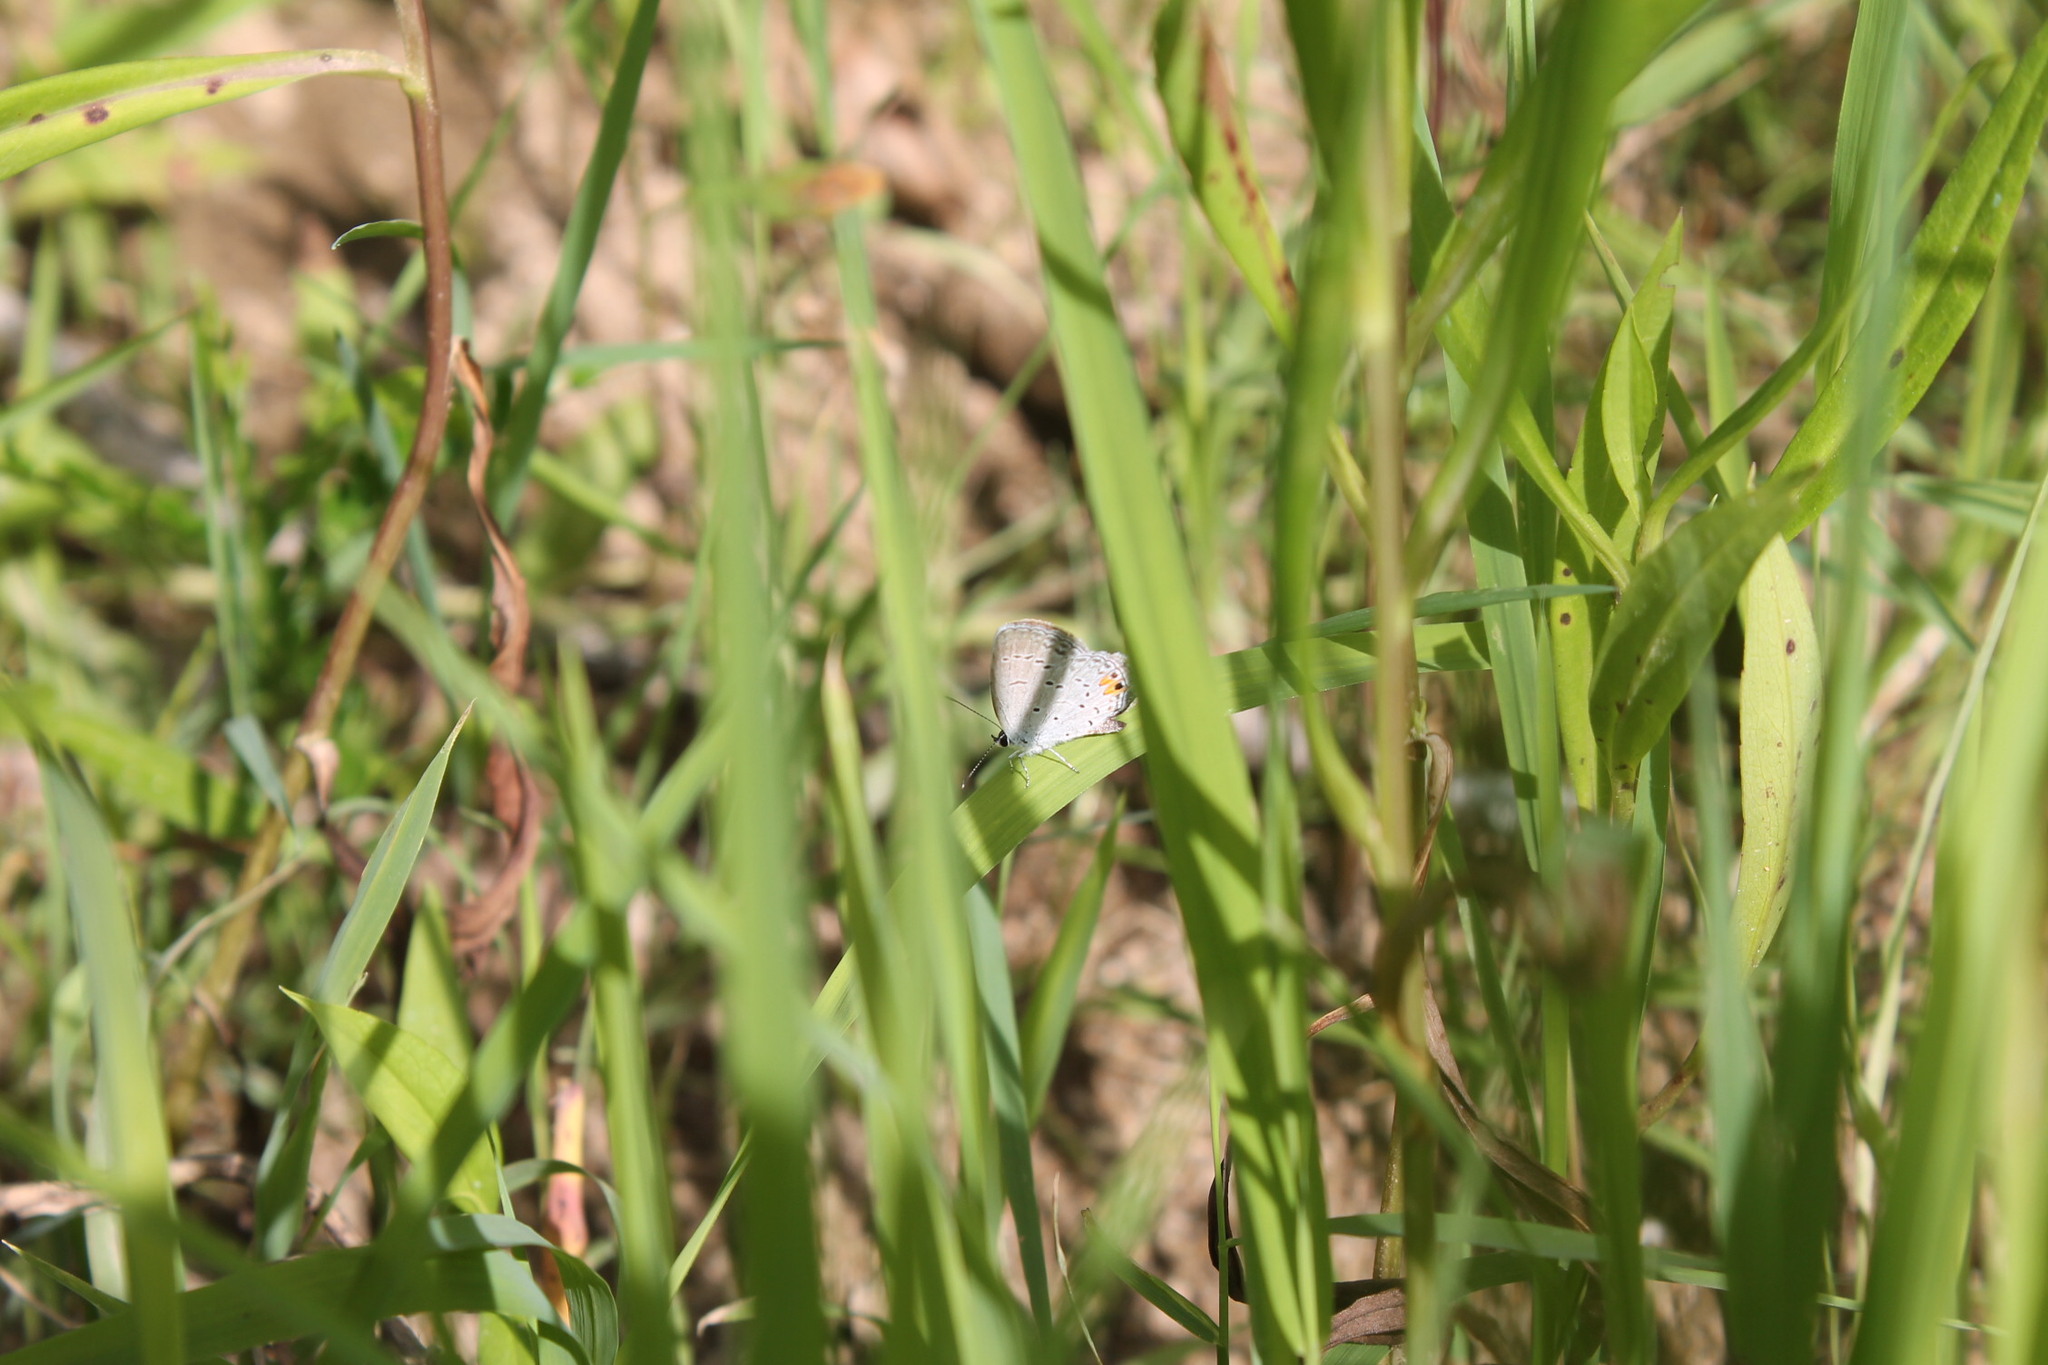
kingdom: Animalia
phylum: Arthropoda
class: Insecta
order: Lepidoptera
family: Lycaenidae
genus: Elkalyce
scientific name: Elkalyce comyntas
